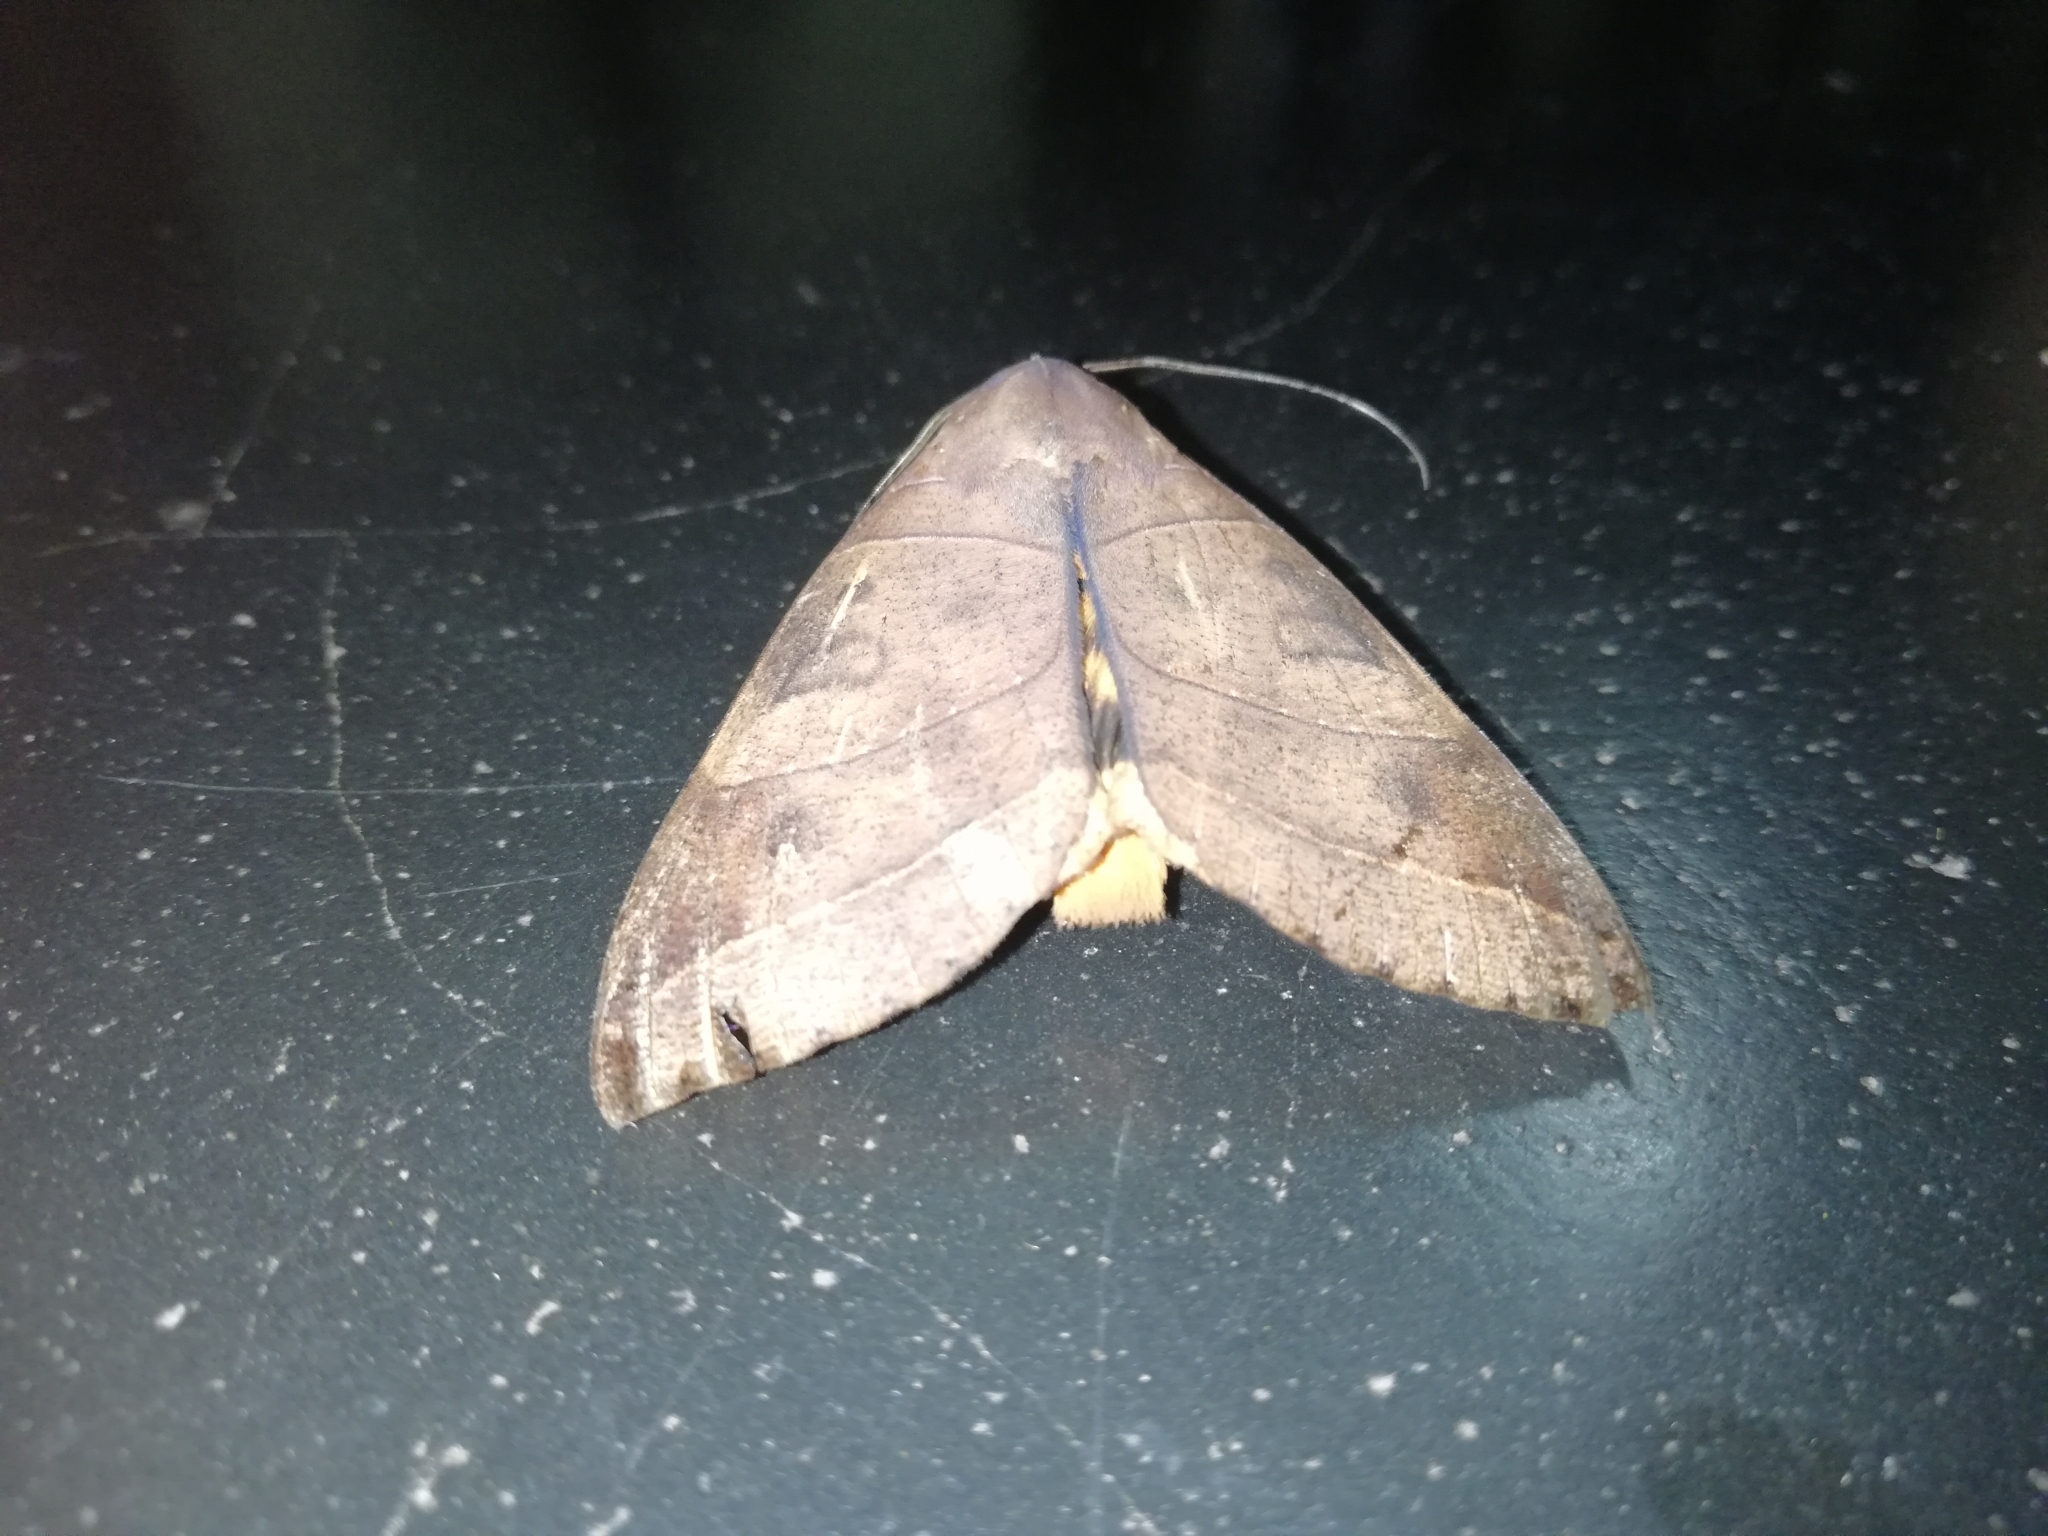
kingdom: Animalia
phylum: Arthropoda
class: Insecta
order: Lepidoptera
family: Erebidae
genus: Thyas
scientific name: Thyas coronata
